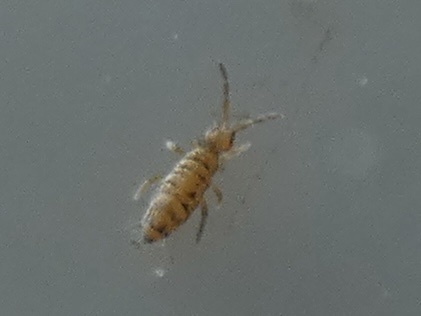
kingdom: Animalia
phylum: Arthropoda
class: Collembola
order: Entomobryomorpha
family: Entomobryidae
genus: Entomobrya
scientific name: Entomobrya multifasciata
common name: Springtail
